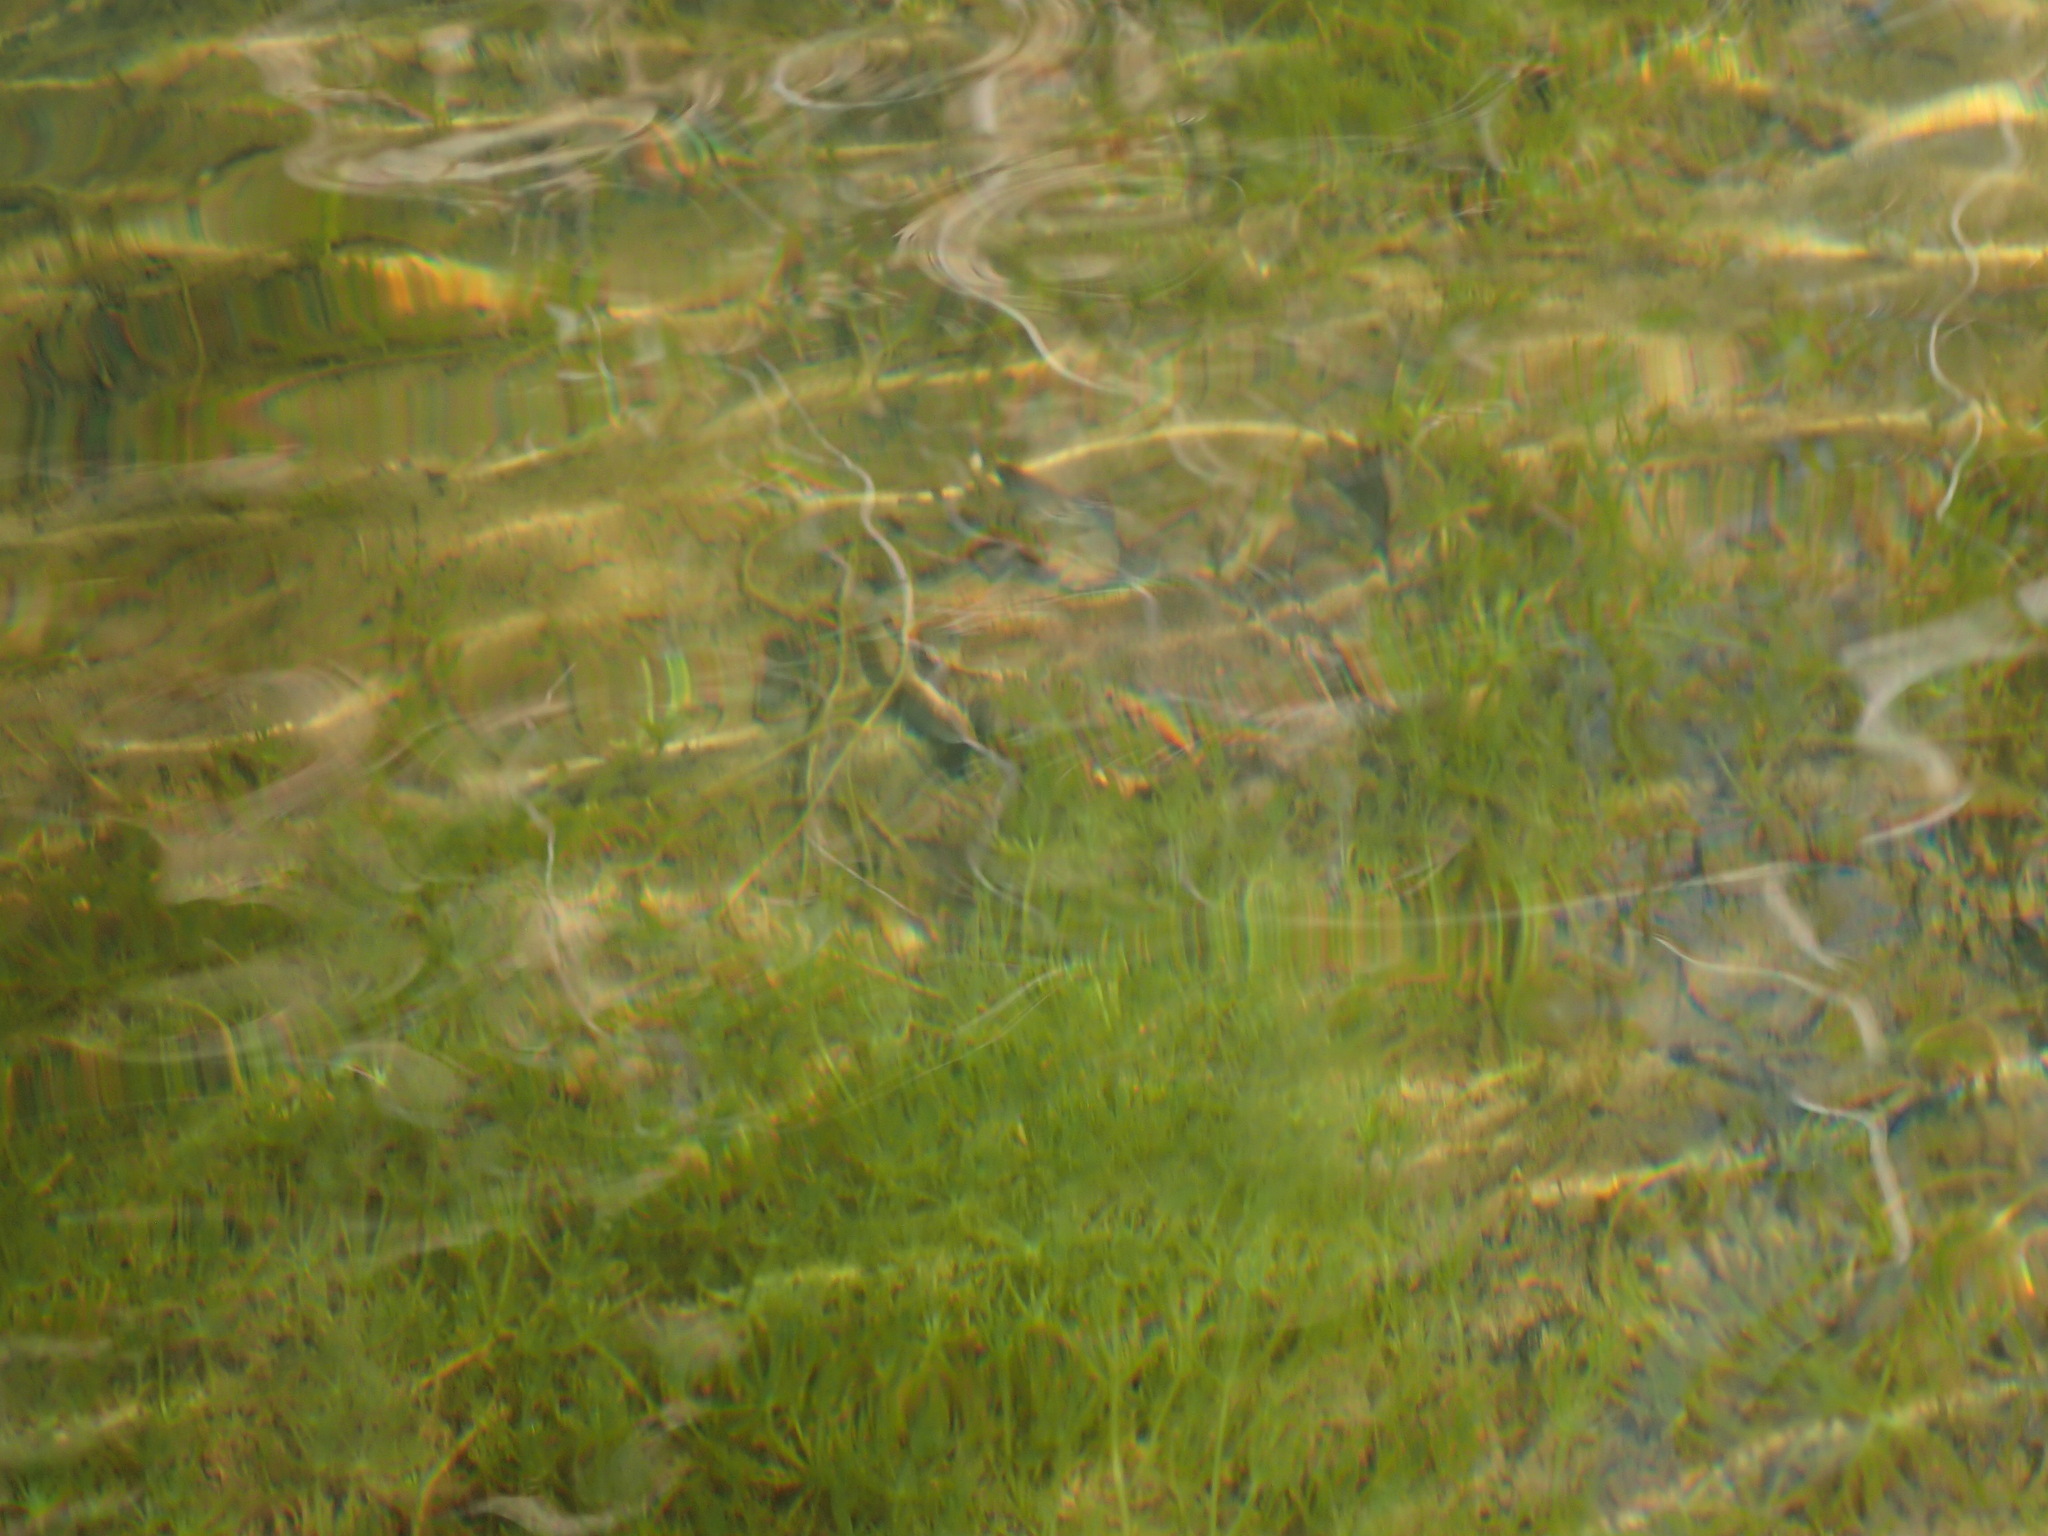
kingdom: Animalia
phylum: Chordata
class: Amphibia
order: Anura
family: Ranidae
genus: Rana
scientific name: Rana draytonii
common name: California red-legged frog
